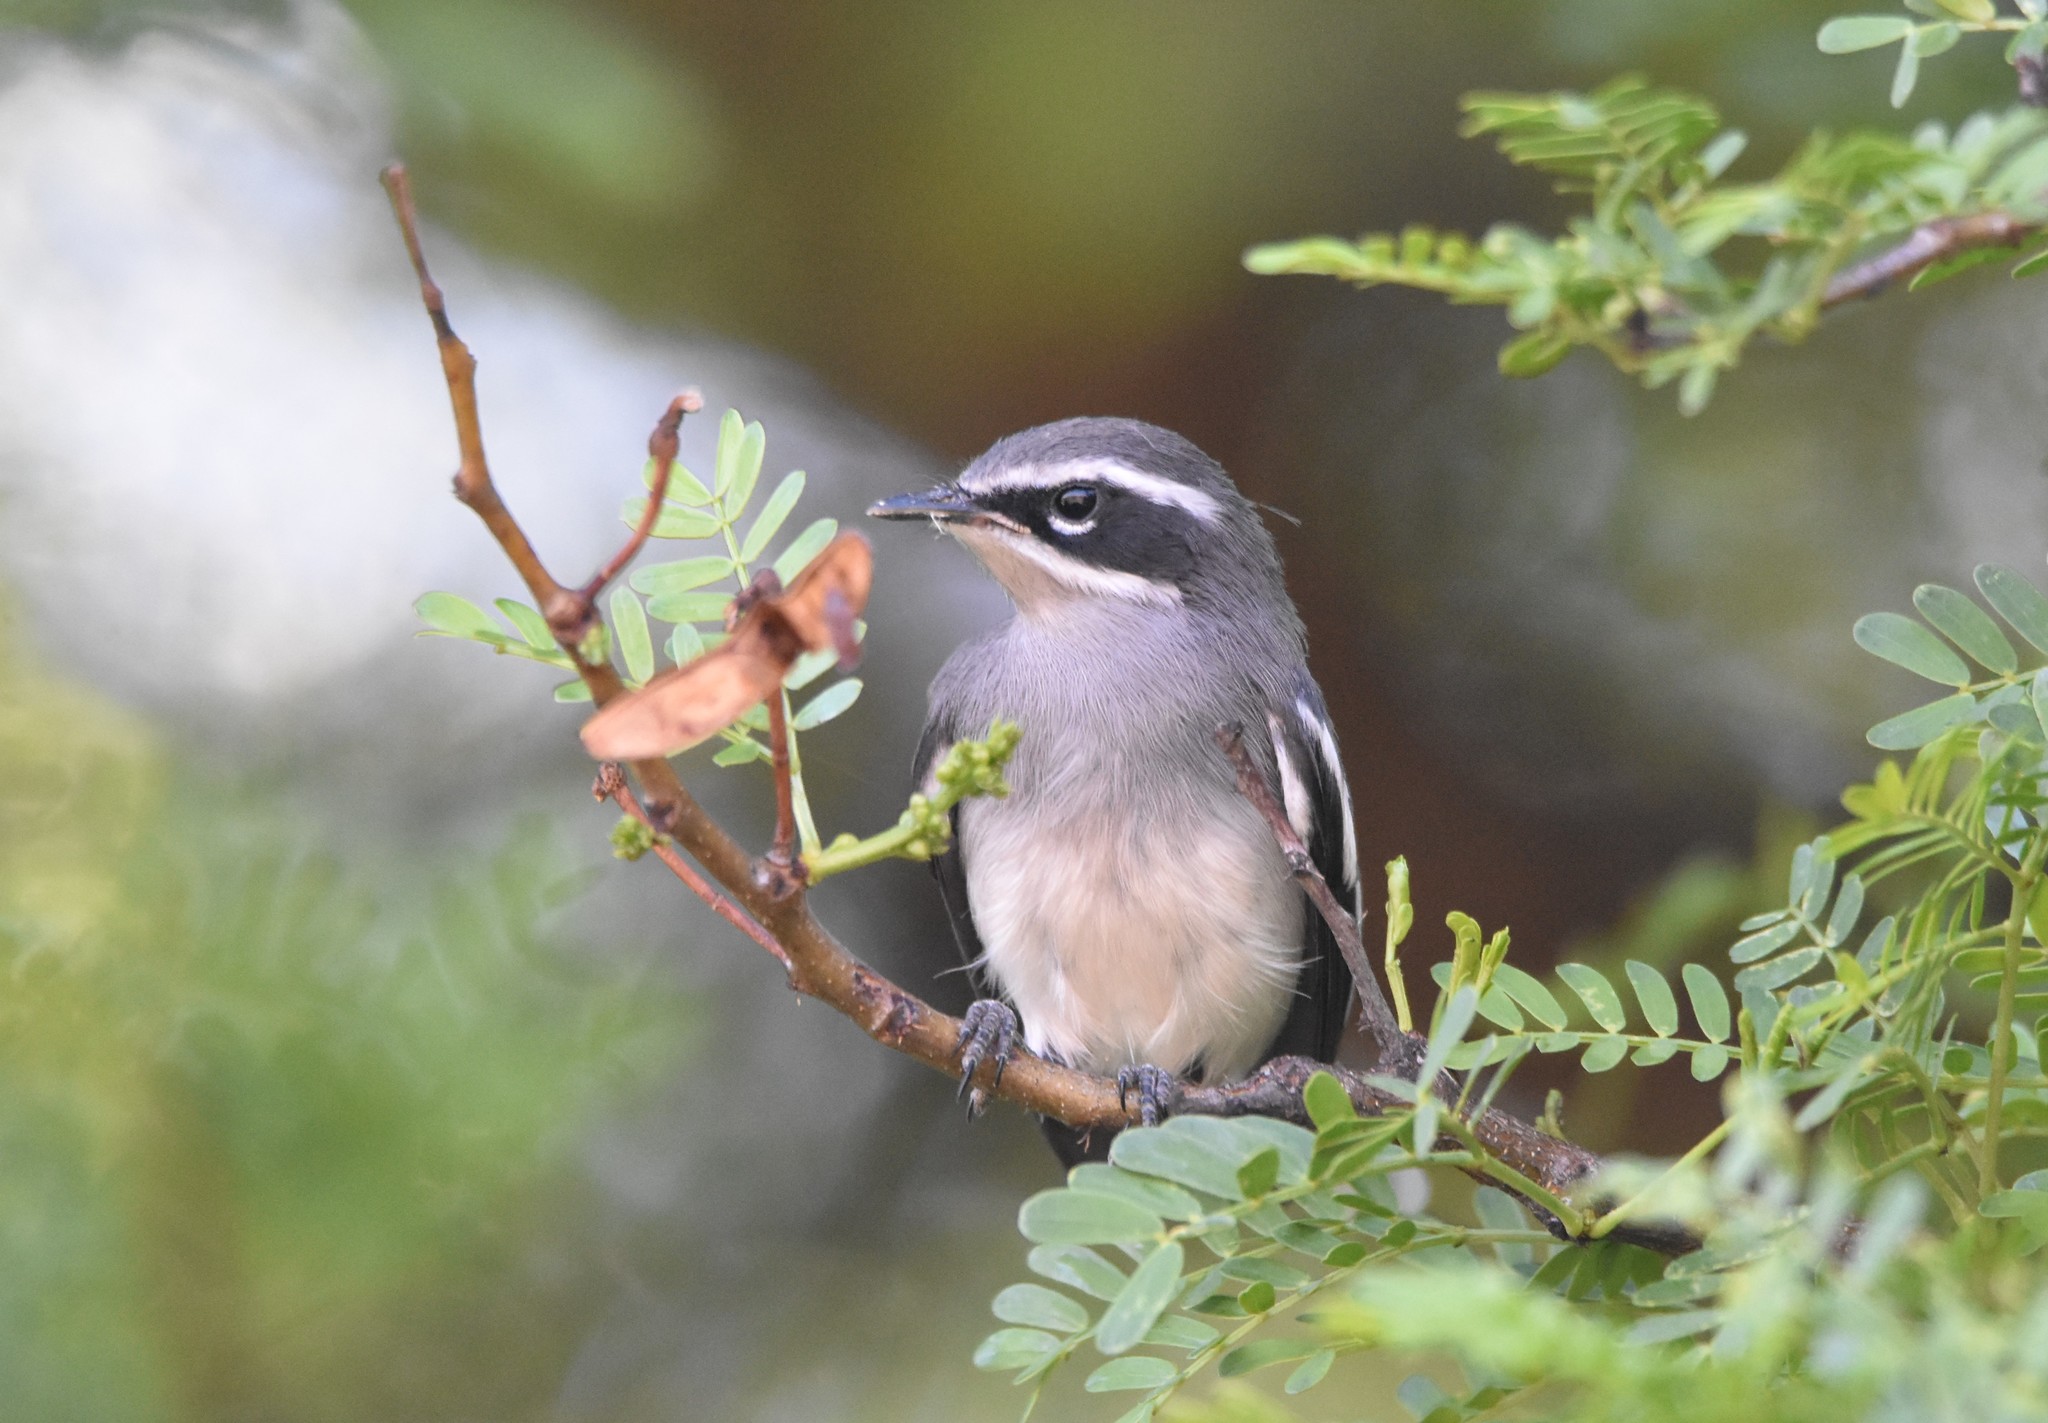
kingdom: Animalia
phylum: Chordata
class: Aves
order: Passeriformes
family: Stenostiridae
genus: Stenostira
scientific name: Stenostira scita
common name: Fairy flycatcher
